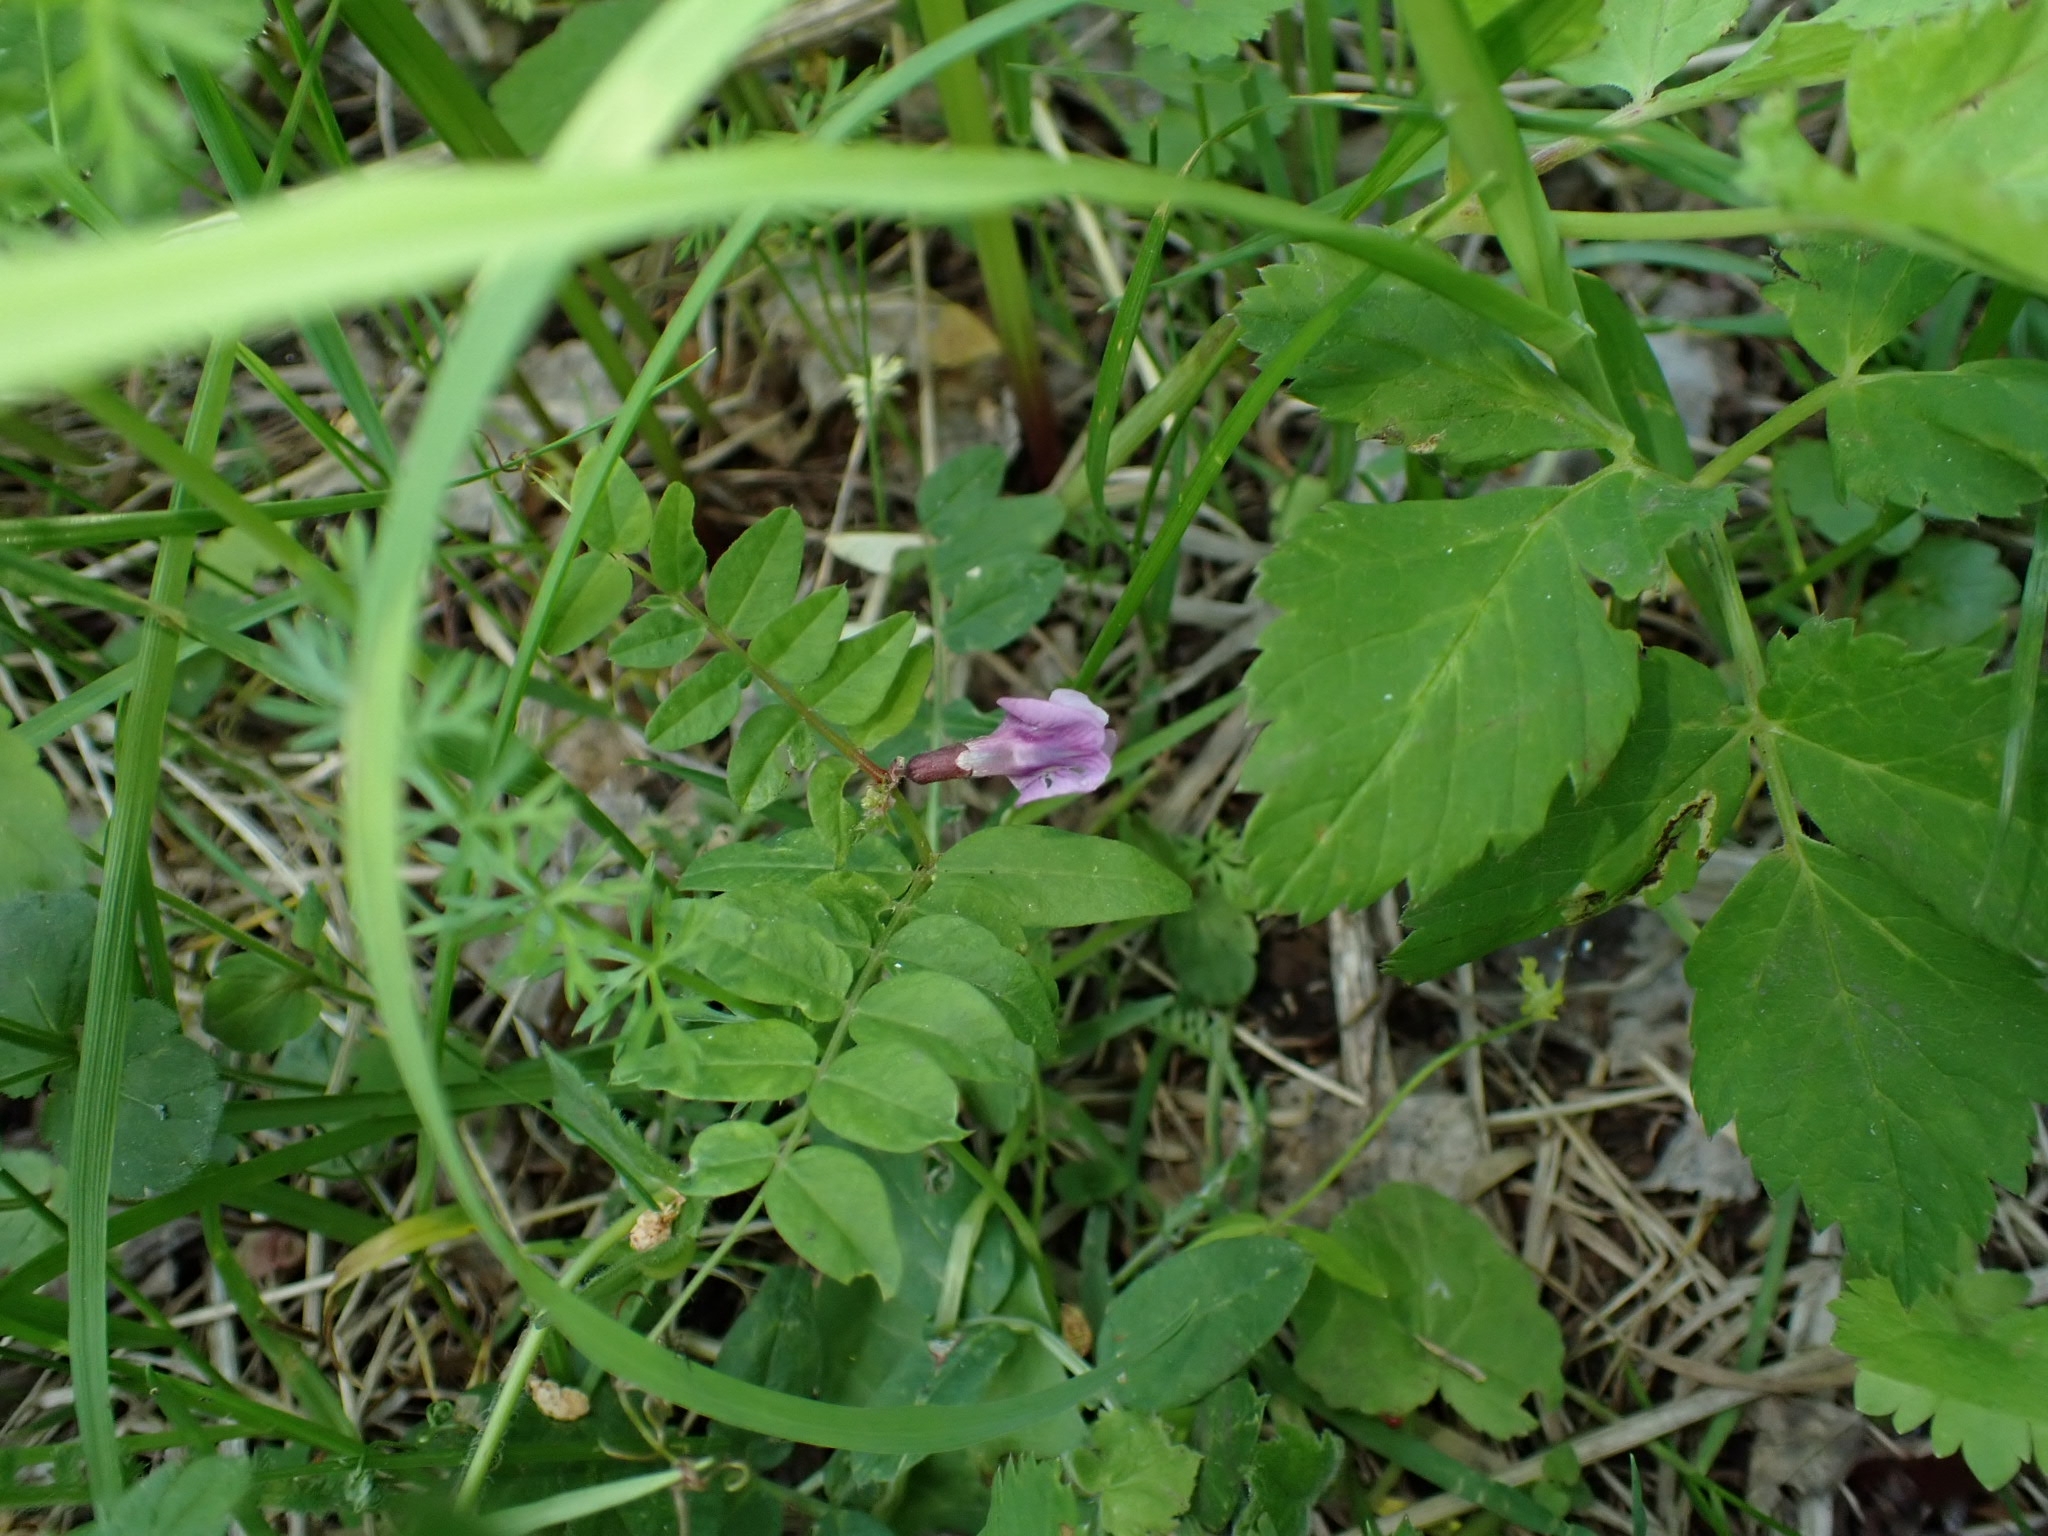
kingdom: Plantae
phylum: Tracheophyta
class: Magnoliopsida
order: Fabales
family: Fabaceae
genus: Vicia
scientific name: Vicia sepium
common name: Bush vetch
